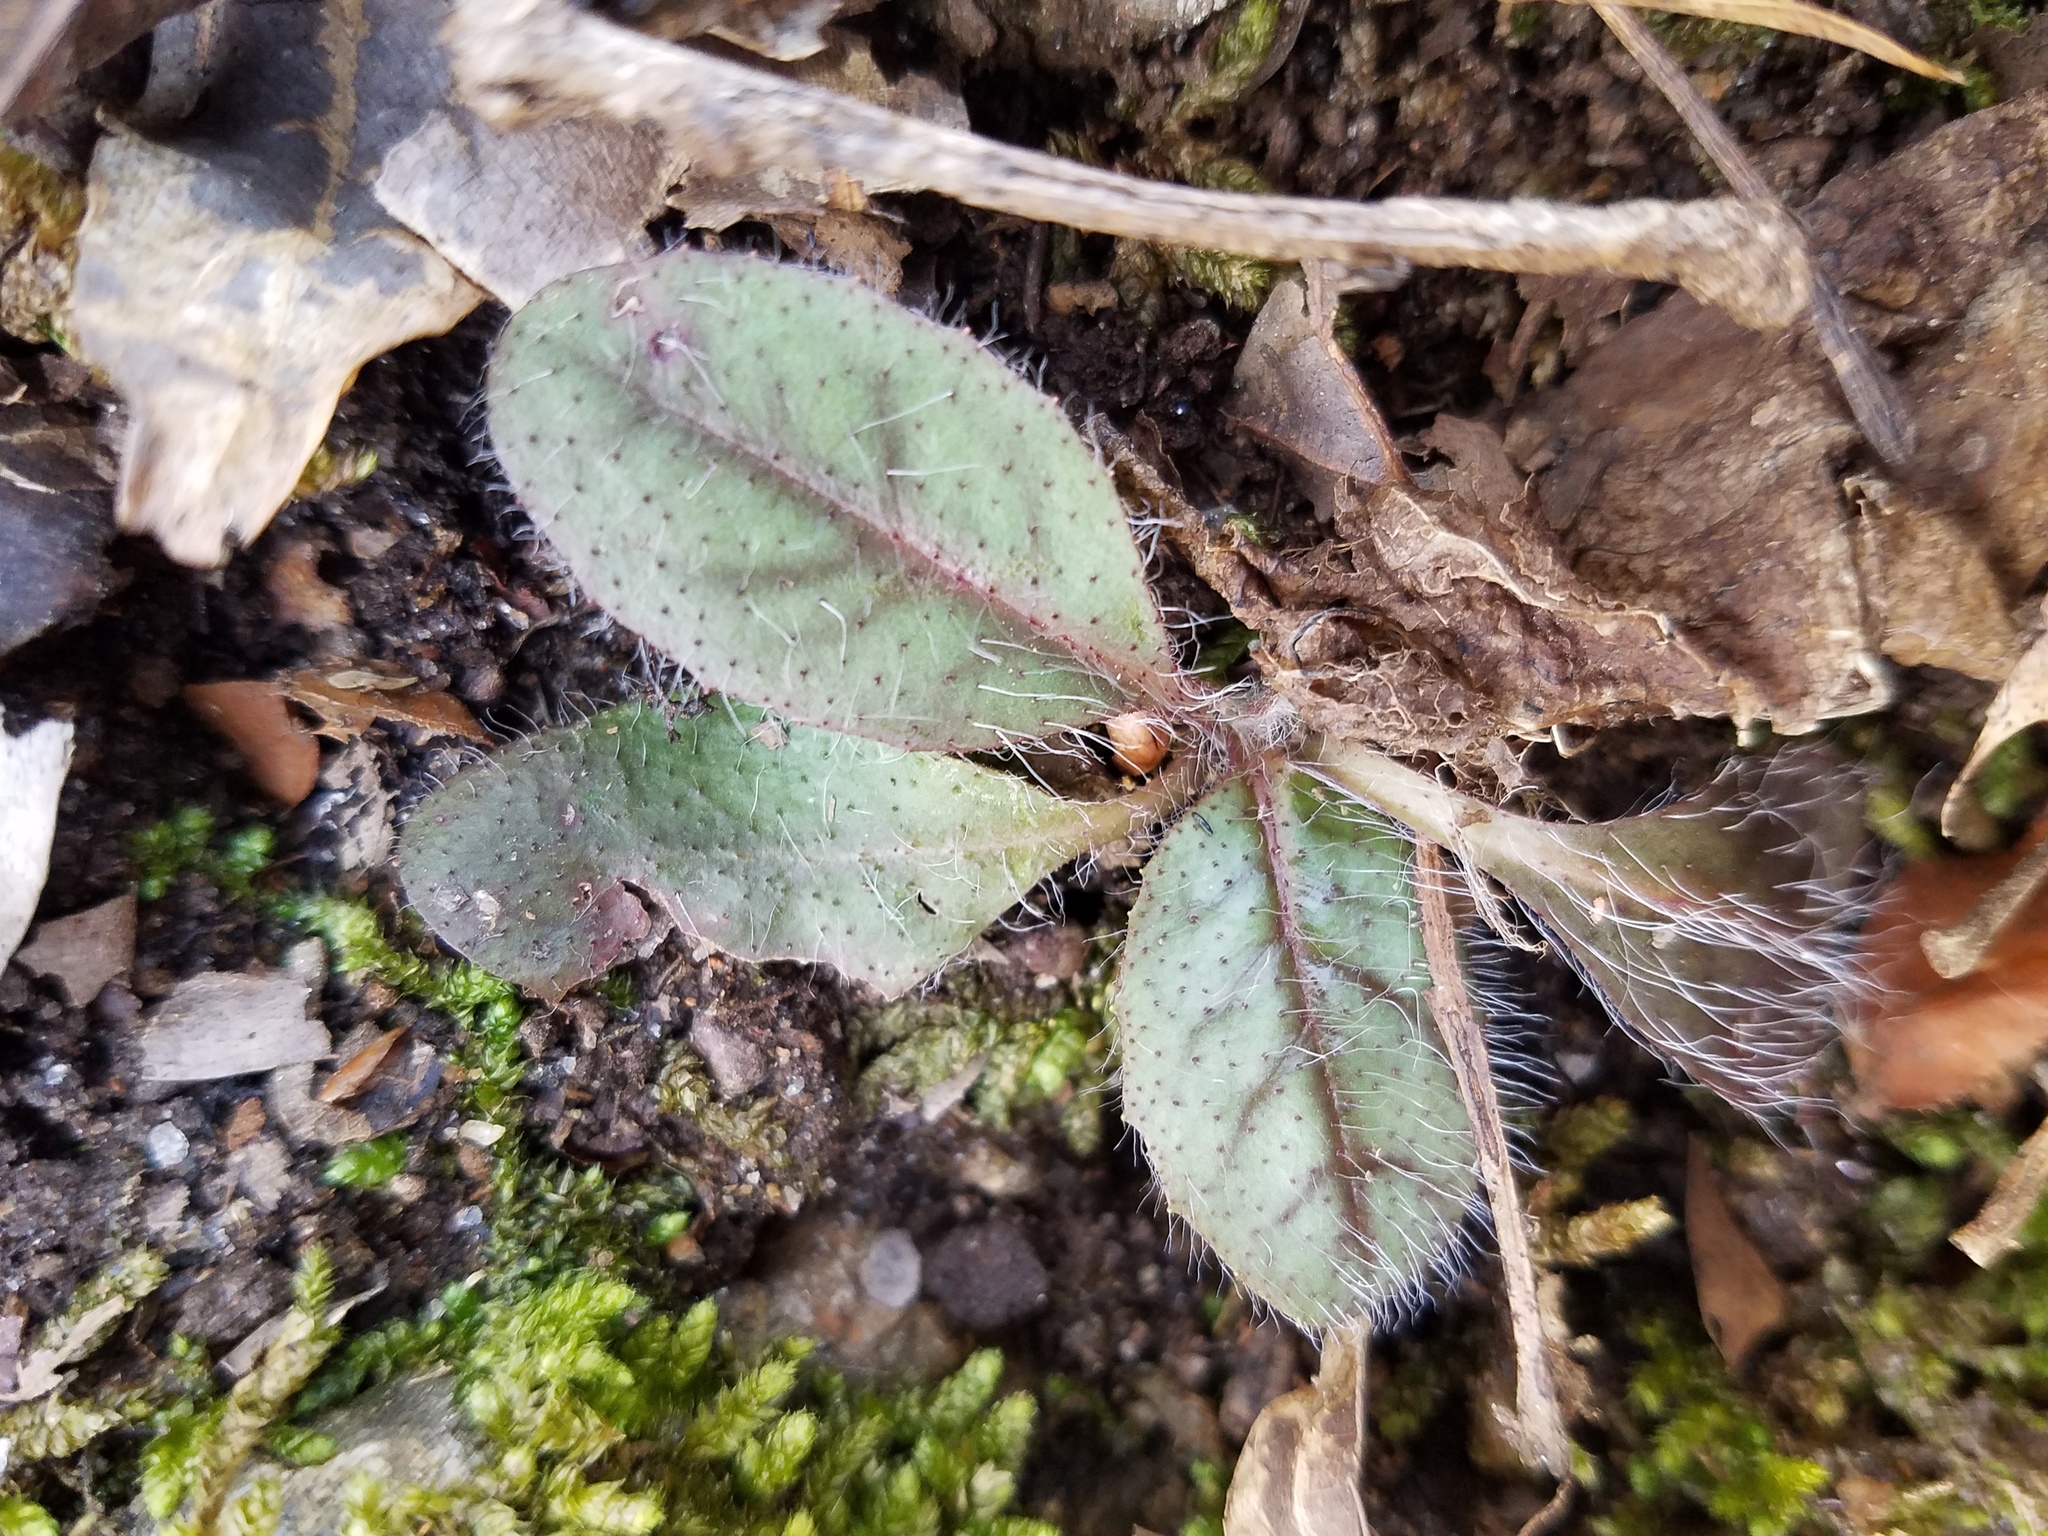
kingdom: Plantae
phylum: Tracheophyta
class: Magnoliopsida
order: Asterales
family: Asteraceae
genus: Hieracium
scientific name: Hieracium venosum
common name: Rattlesnake hawkweed
